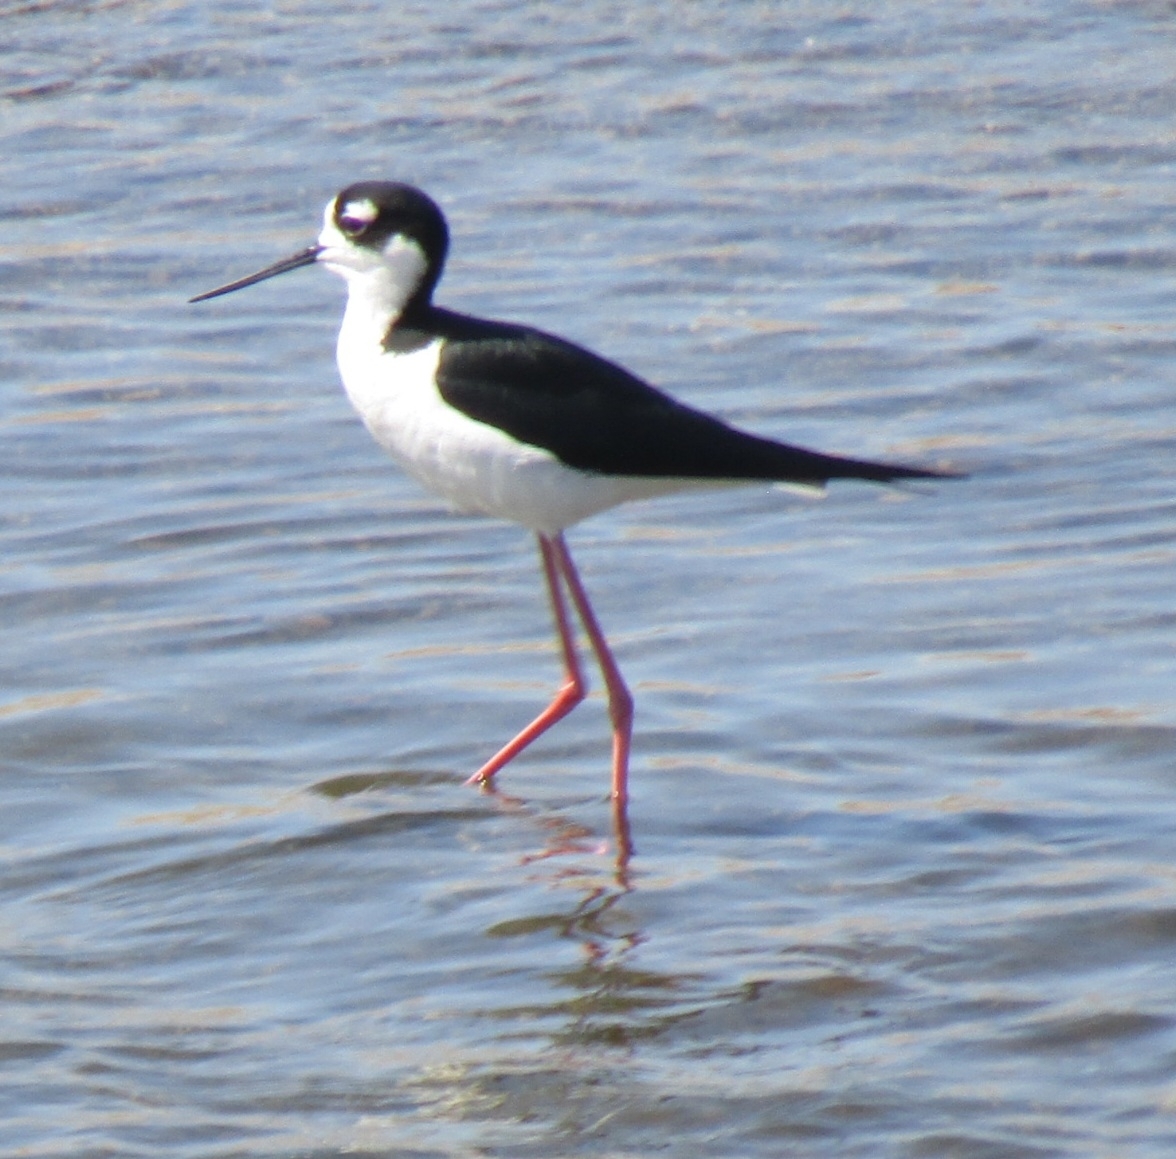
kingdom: Animalia
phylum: Chordata
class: Aves
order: Charadriiformes
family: Recurvirostridae
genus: Himantopus
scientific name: Himantopus mexicanus
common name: Black-necked stilt
